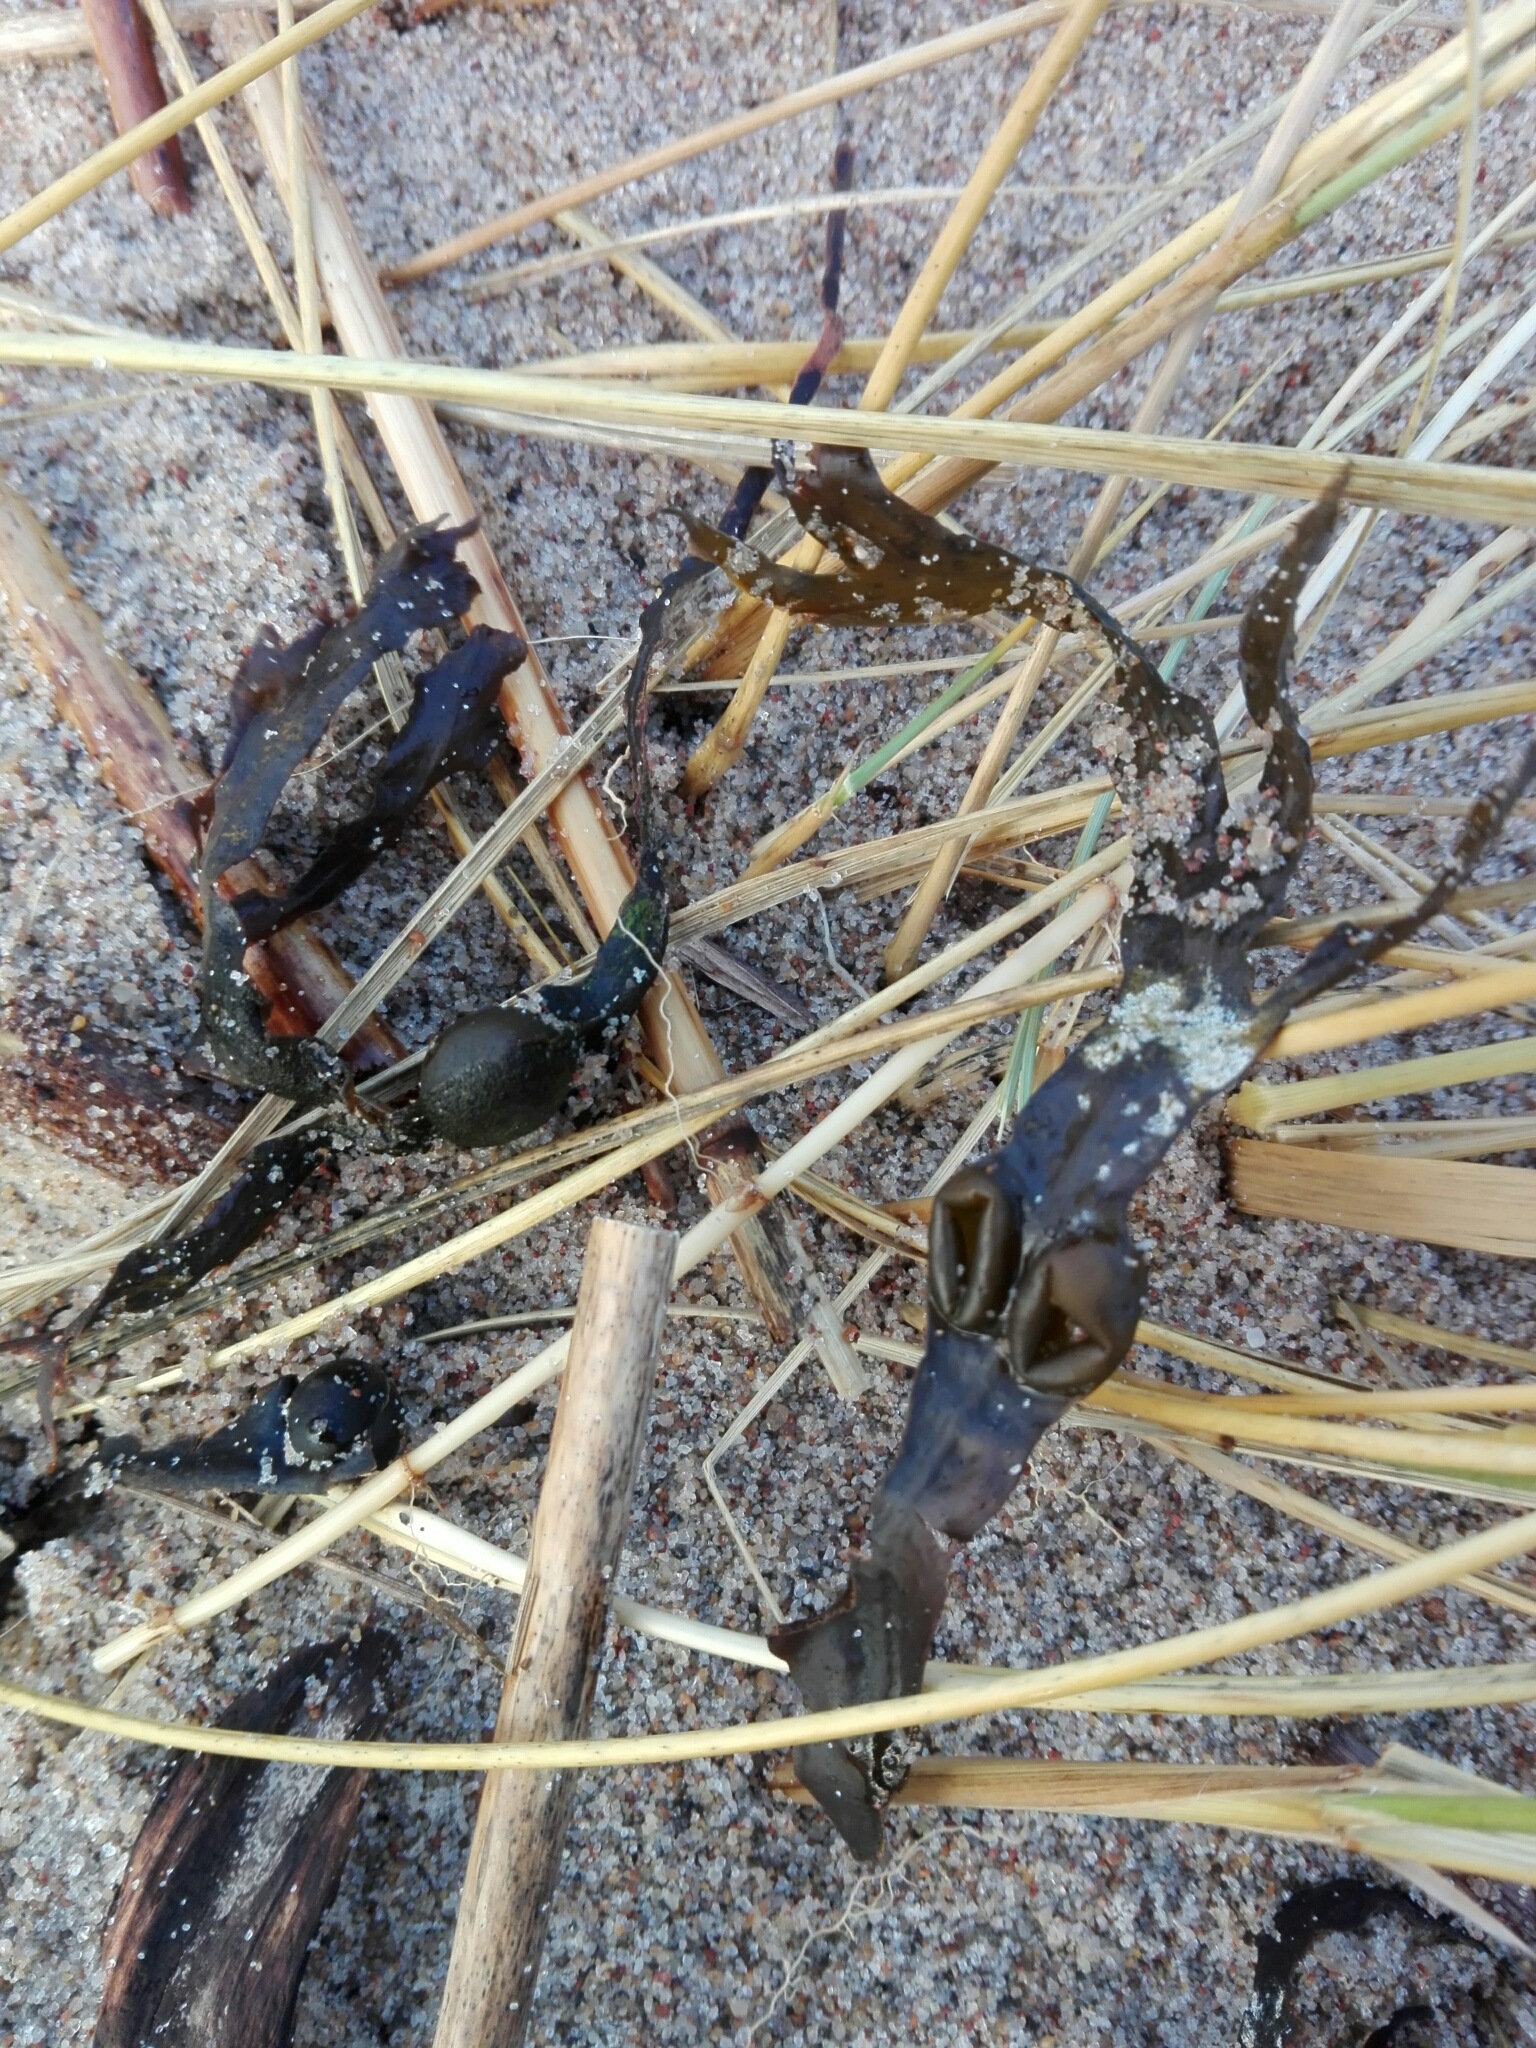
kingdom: Chromista
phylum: Ochrophyta
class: Phaeophyceae
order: Fucales
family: Fucaceae
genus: Fucus
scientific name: Fucus vesiculosus
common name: Bladder wrack
